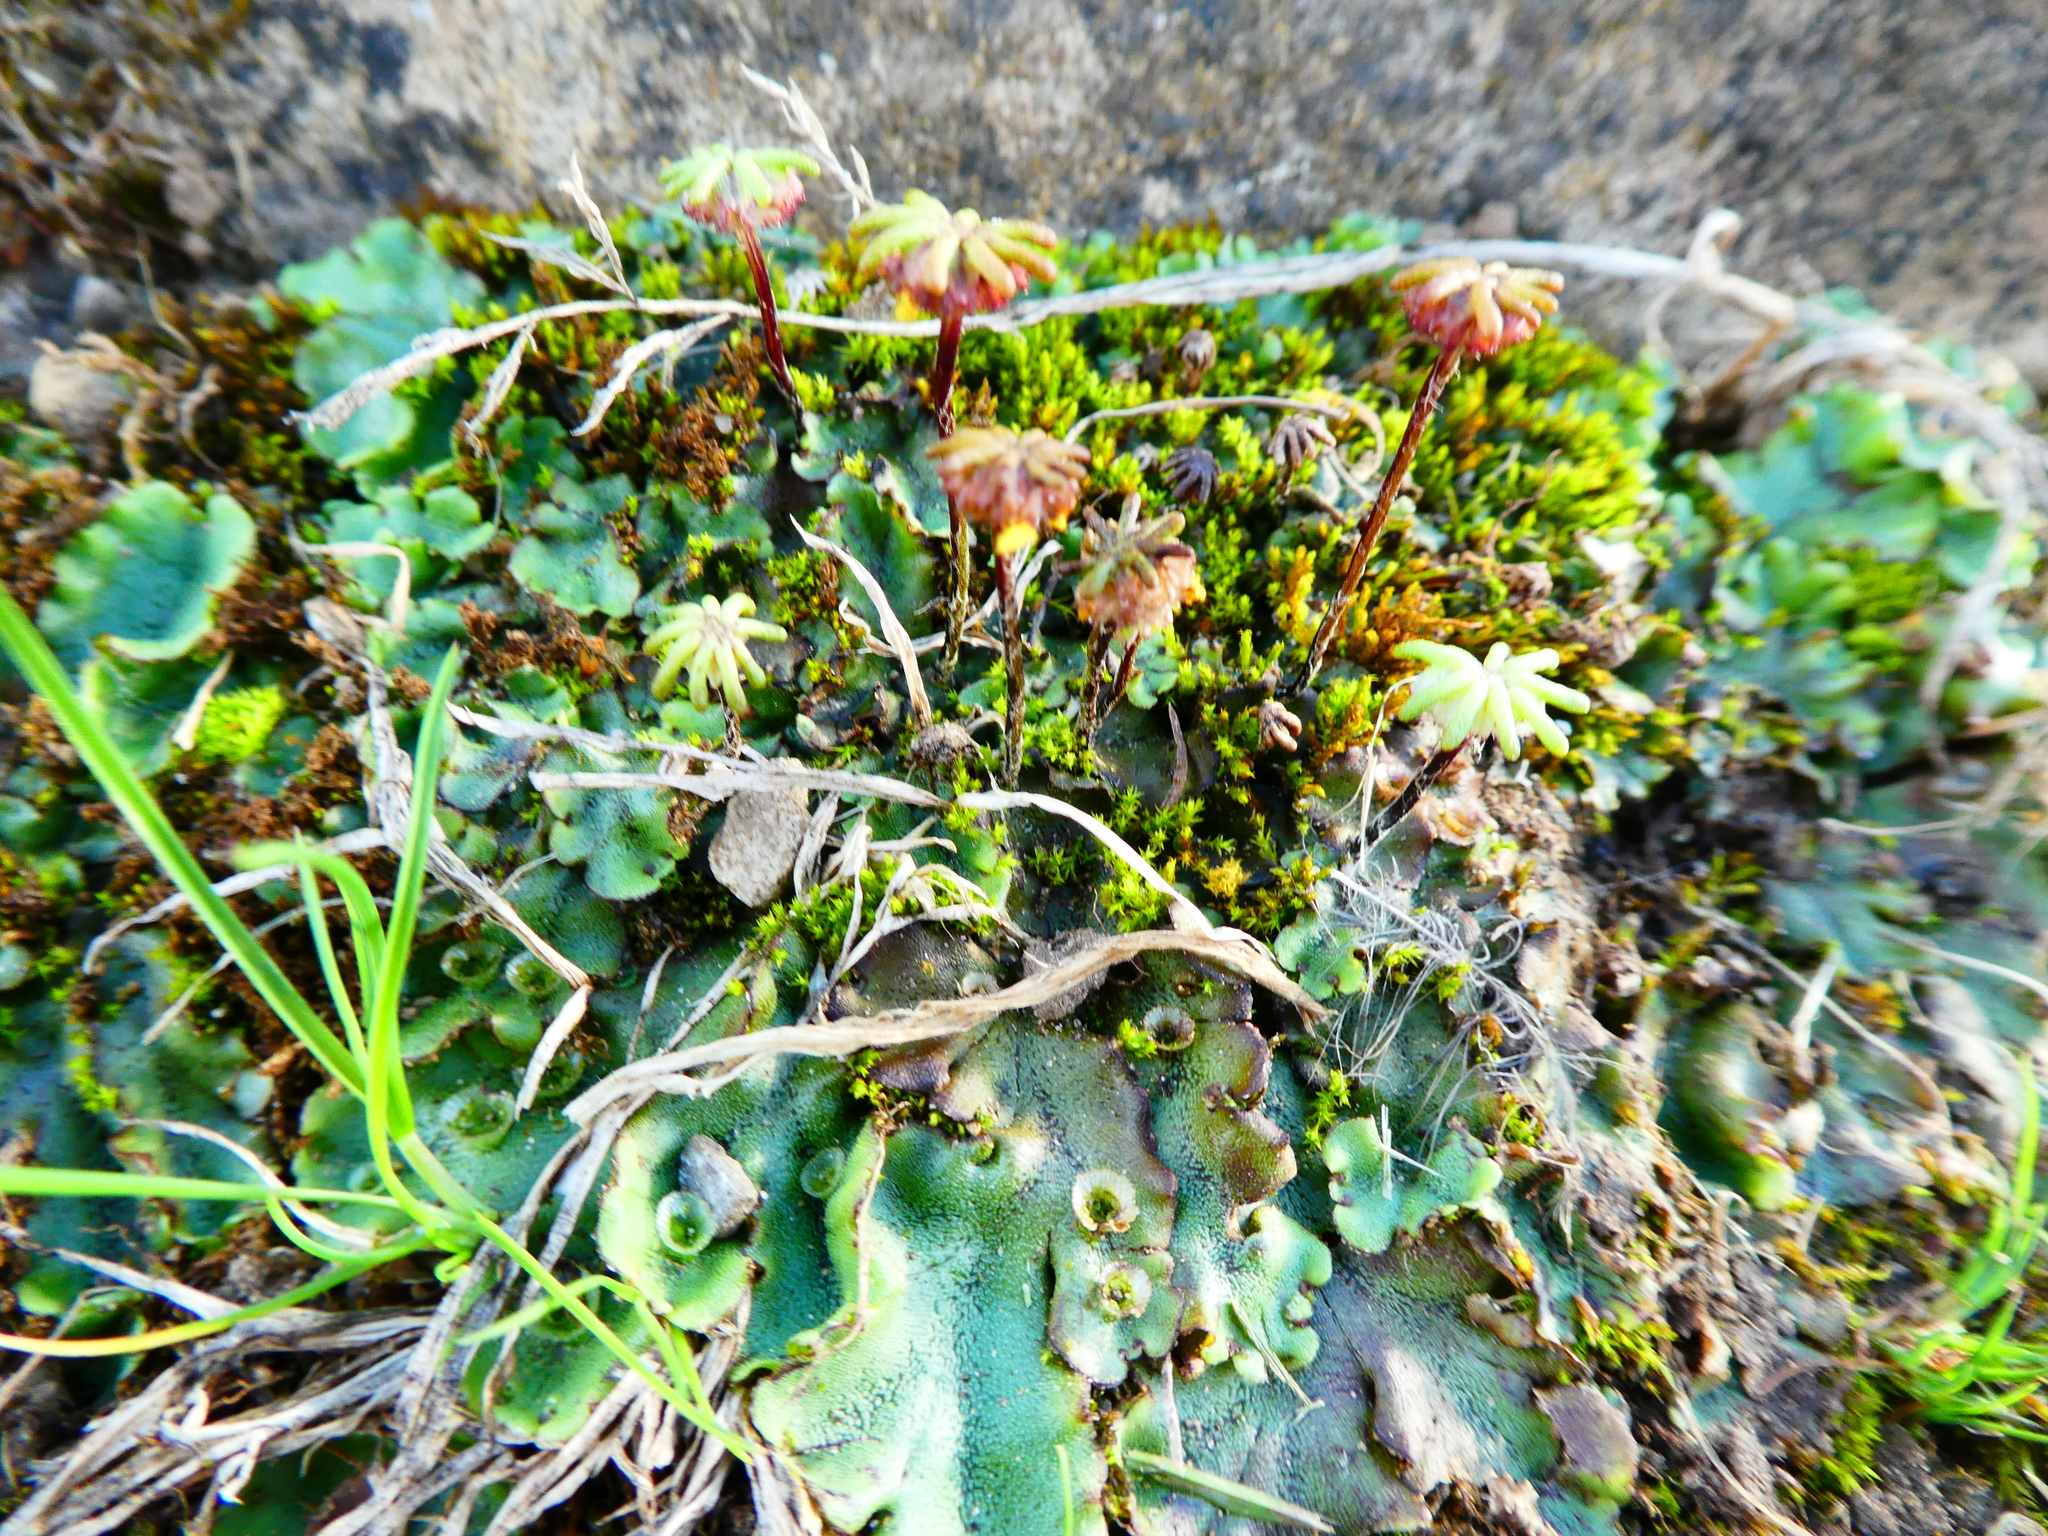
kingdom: Plantae
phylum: Marchantiophyta
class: Marchantiopsida
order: Marchantiales
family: Marchantiaceae
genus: Marchantia
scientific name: Marchantia polymorpha
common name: Common liverwort
